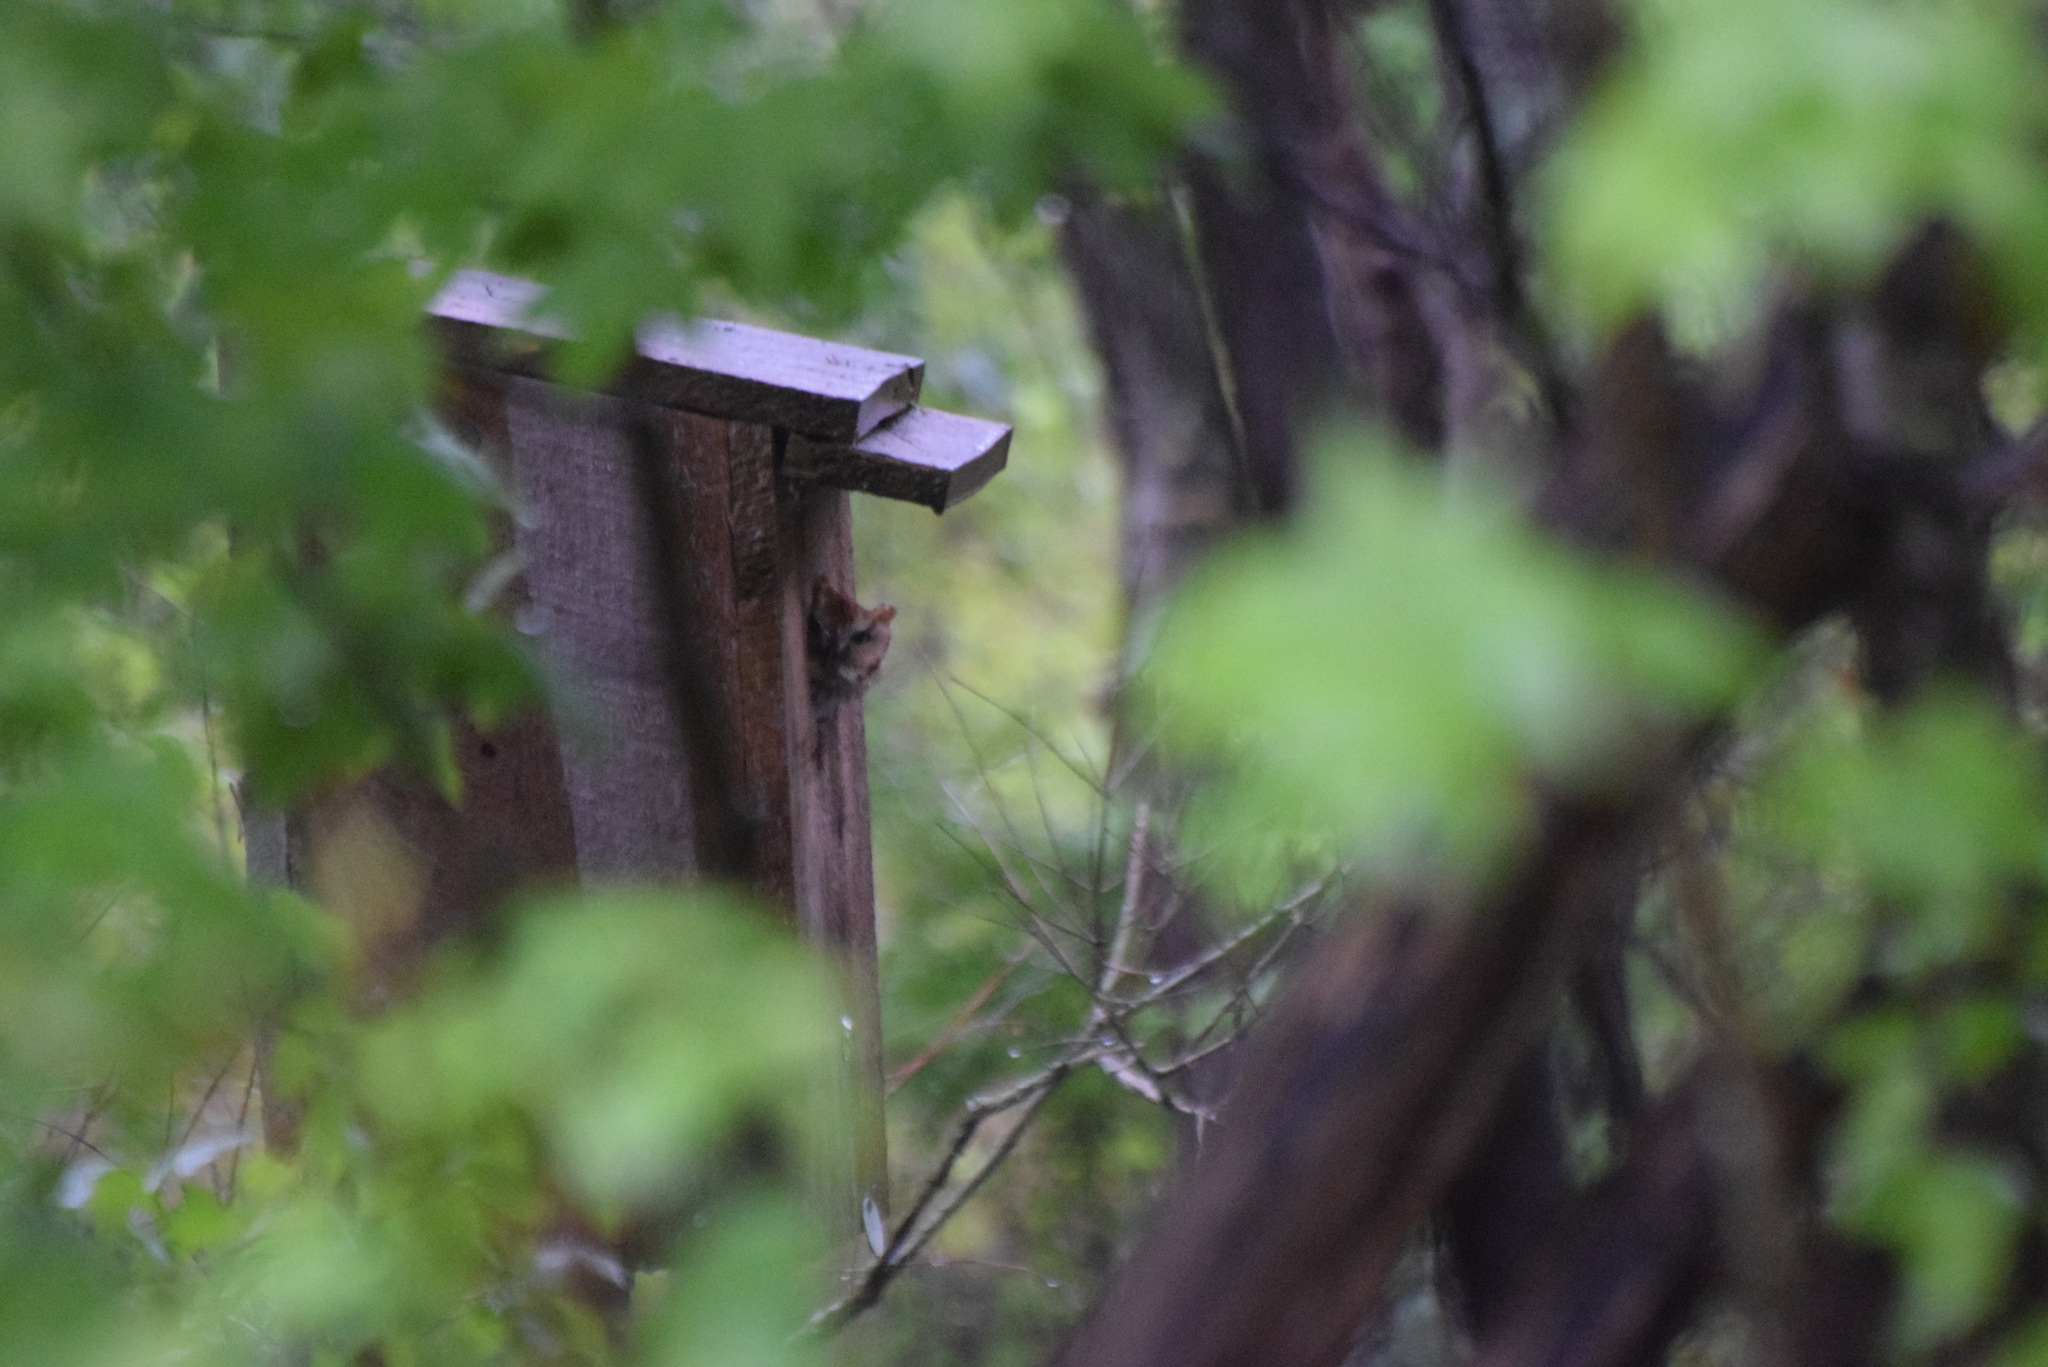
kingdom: Animalia
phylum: Chordata
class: Aves
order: Strigiformes
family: Strigidae
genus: Megascops
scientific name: Megascops asio
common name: Eastern screech-owl
